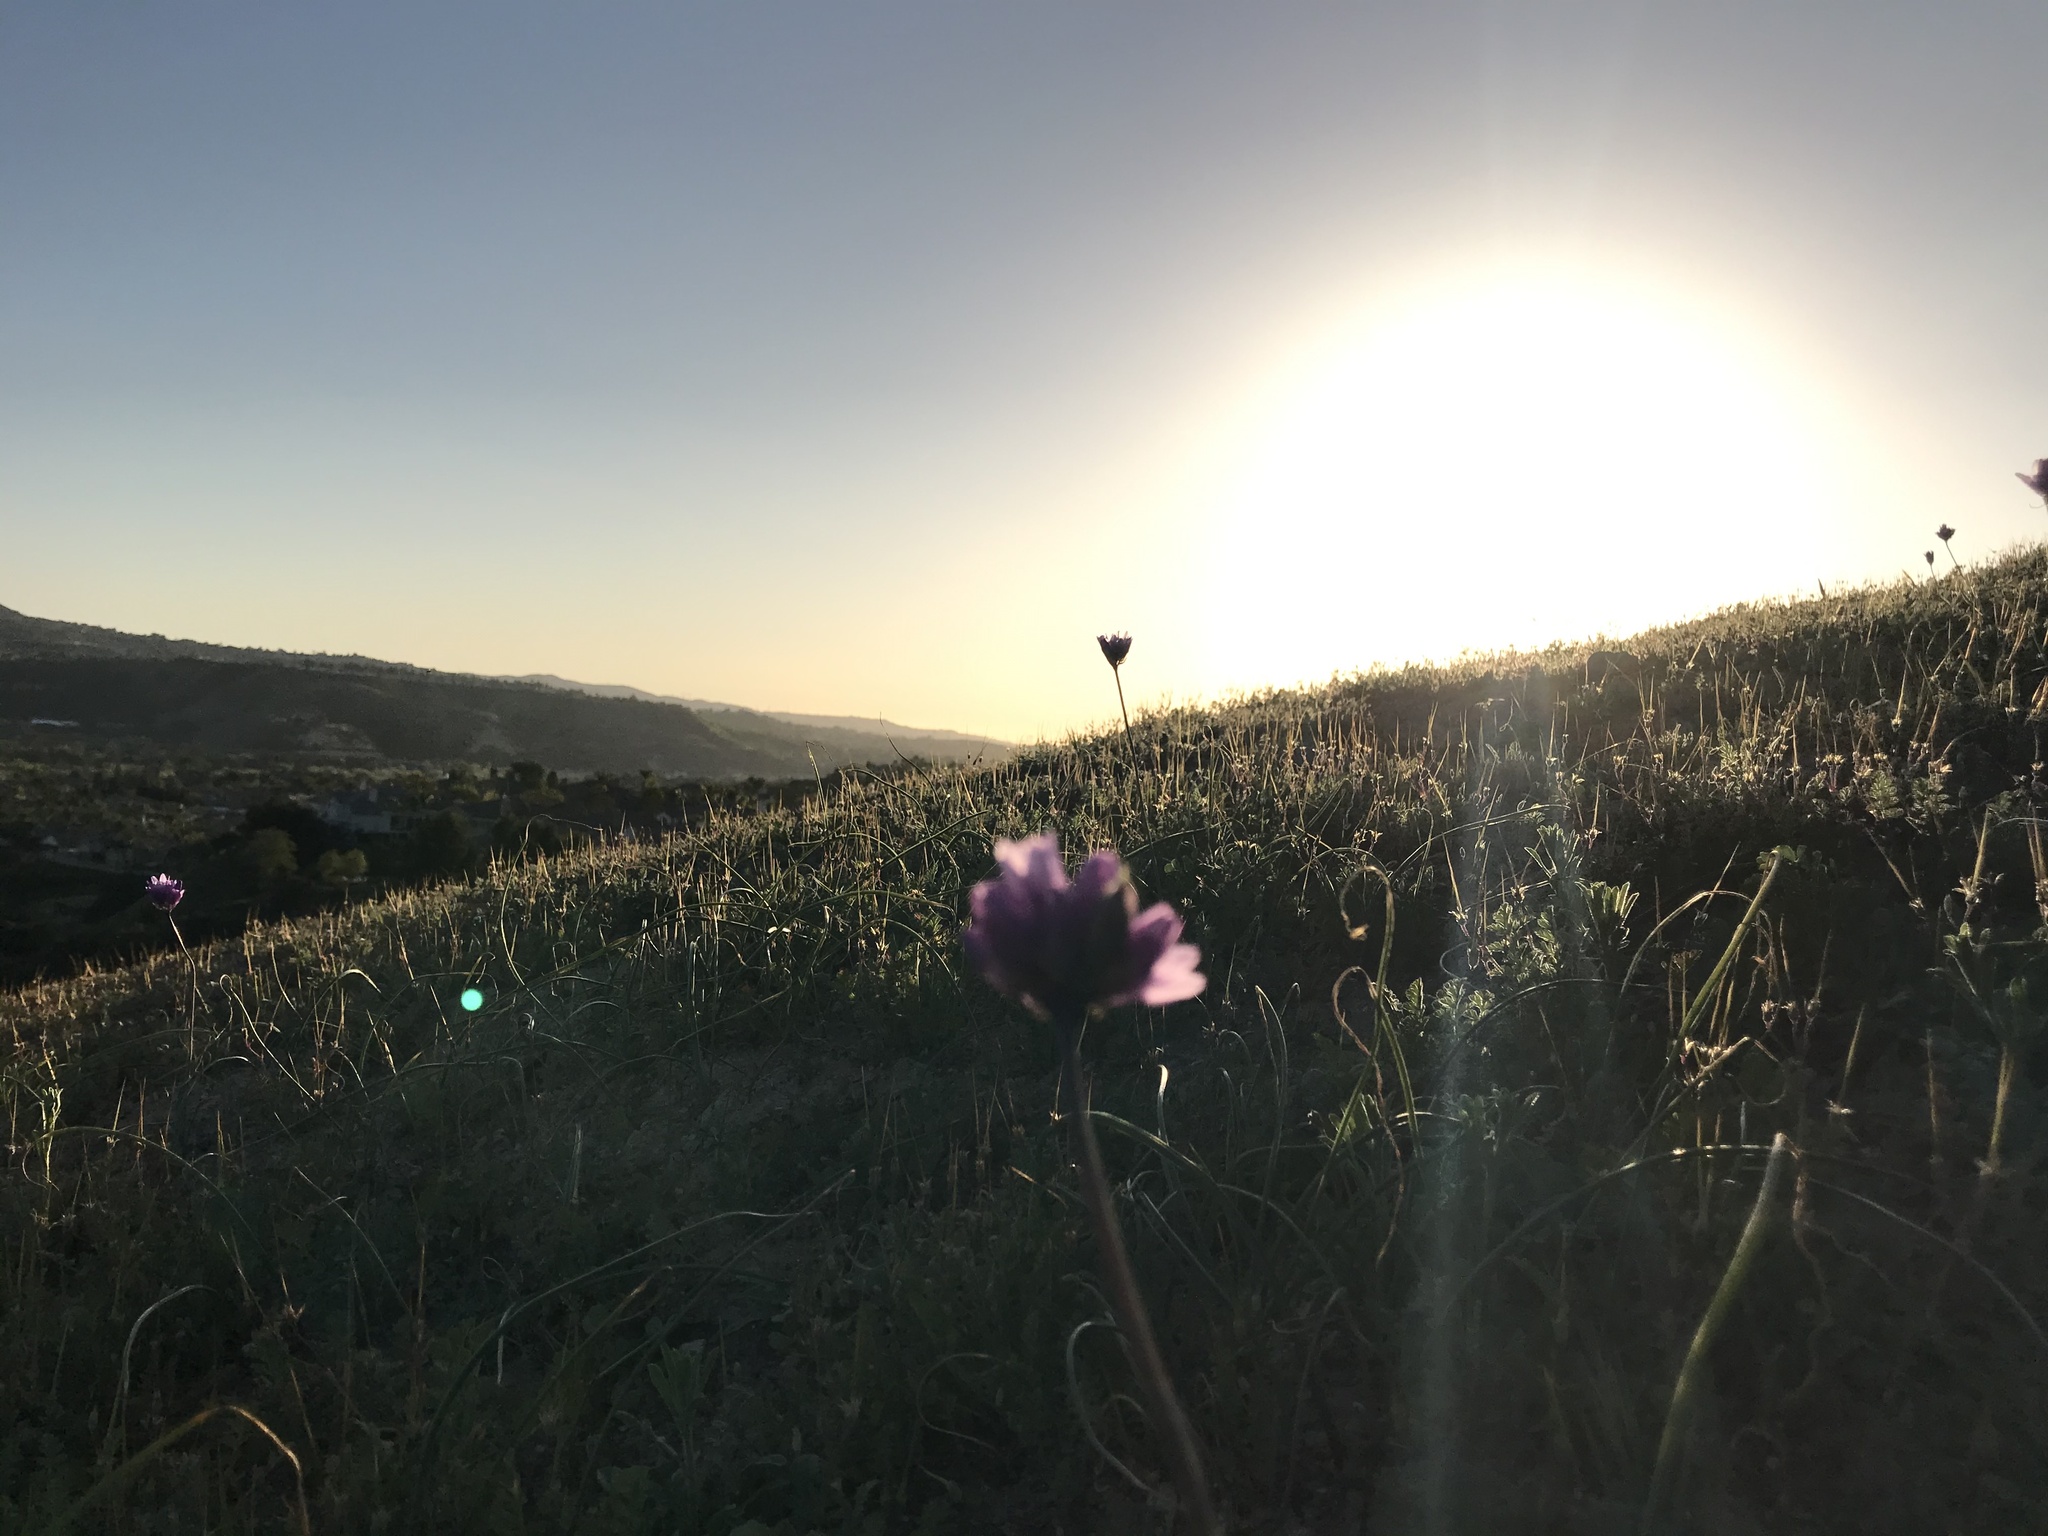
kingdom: Plantae
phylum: Tracheophyta
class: Liliopsida
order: Asparagales
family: Asparagaceae
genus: Dipterostemon
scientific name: Dipterostemon capitatus
